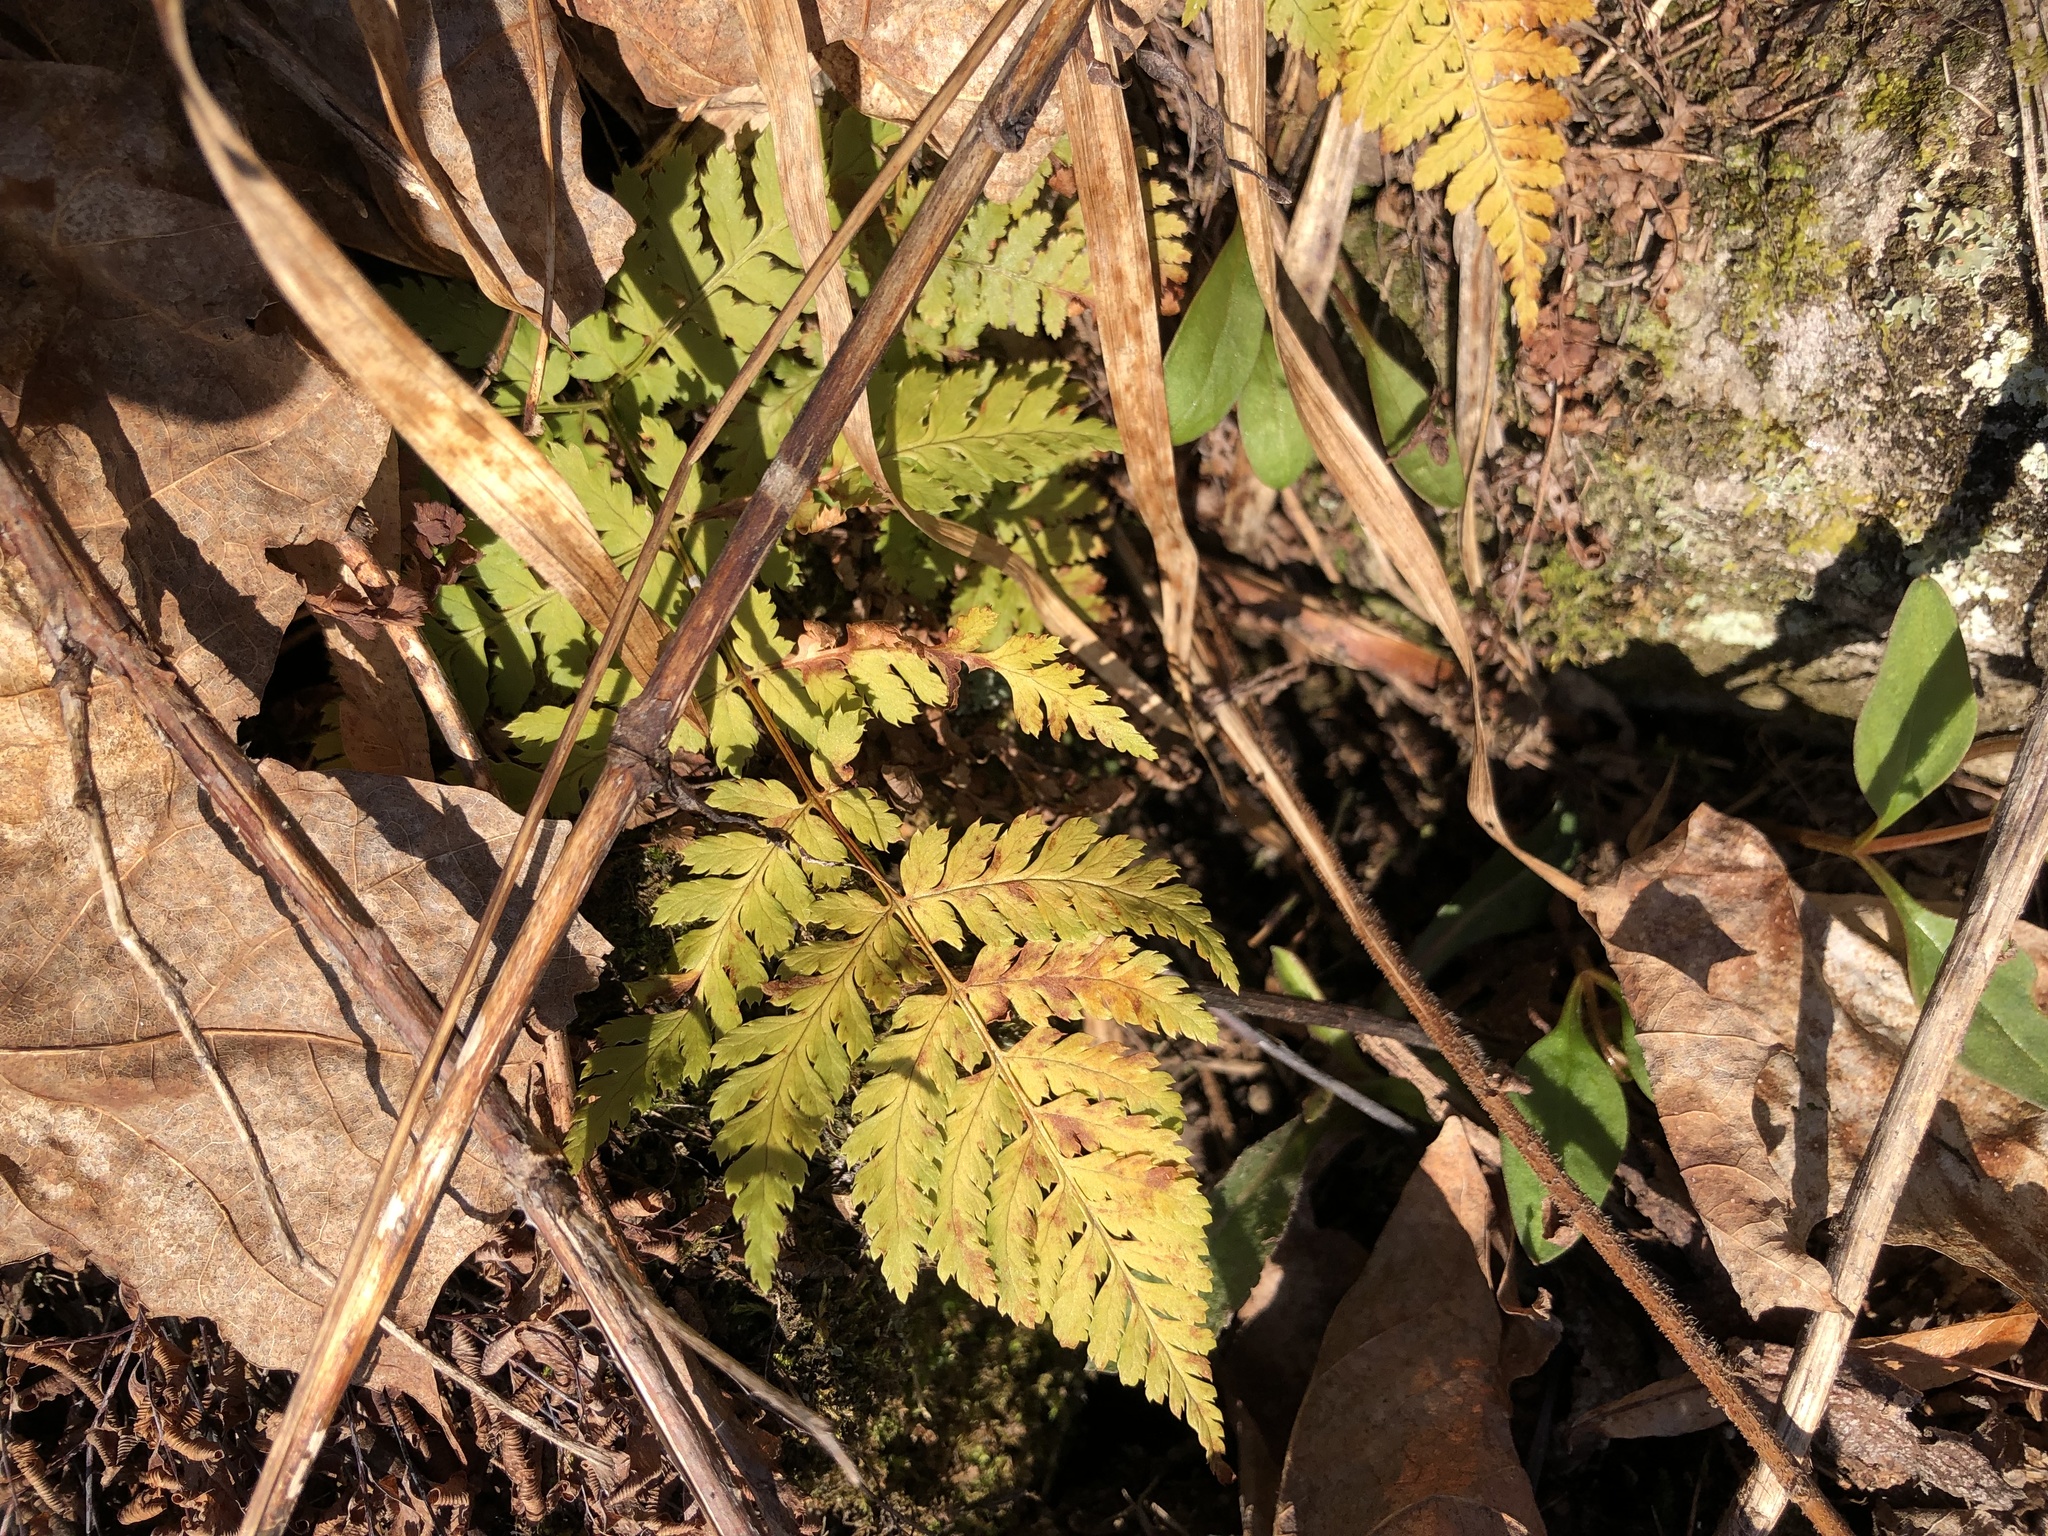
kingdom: Plantae
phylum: Tracheophyta
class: Polypodiopsida
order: Polypodiales
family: Dryopteridaceae
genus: Dryopteris
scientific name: Dryopteris intermedia
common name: Evergreen wood fern
